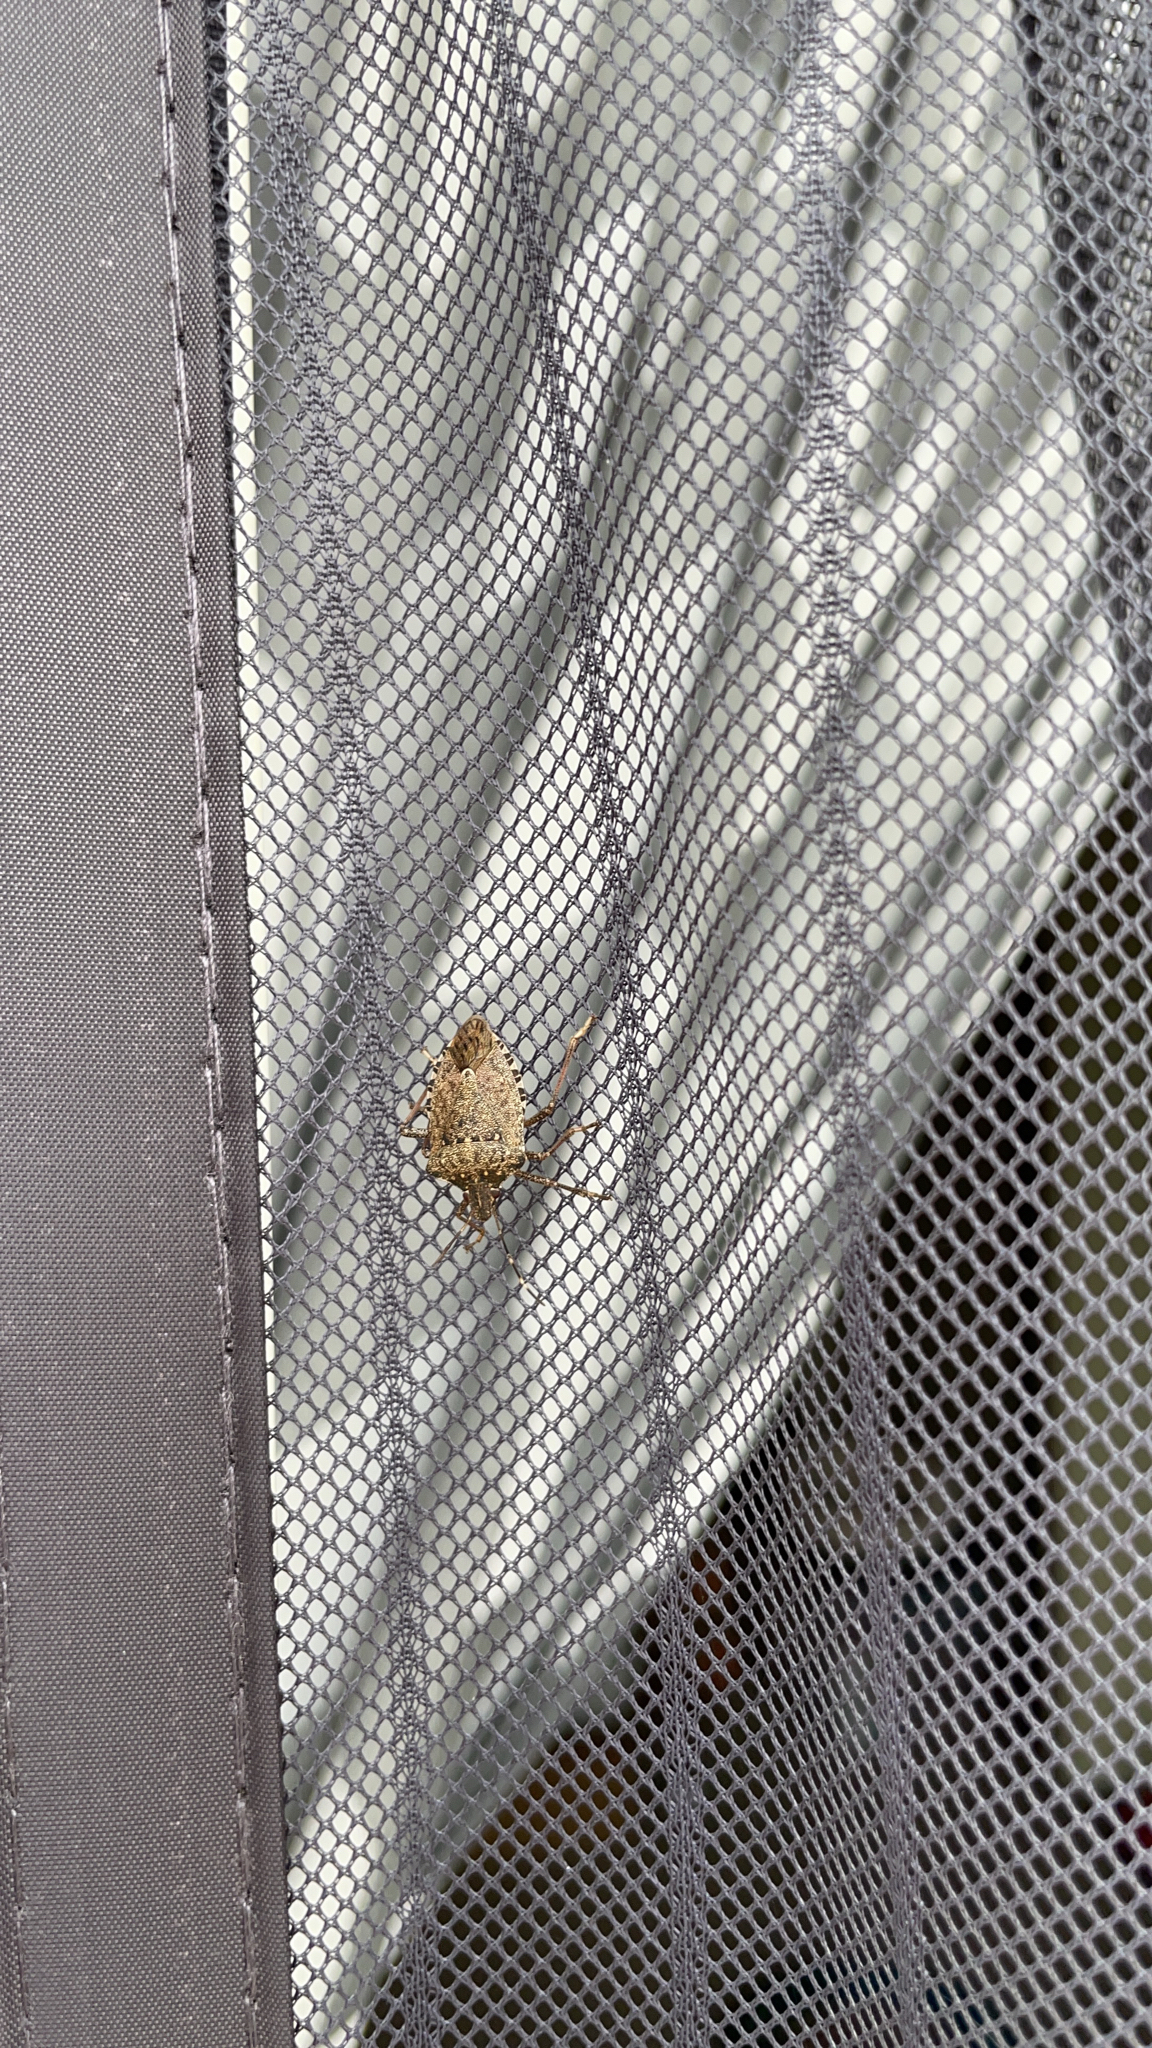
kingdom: Animalia
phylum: Arthropoda
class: Insecta
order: Hemiptera
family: Pentatomidae
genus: Halyomorpha
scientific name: Halyomorpha halys
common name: Brown marmorated stink bug
